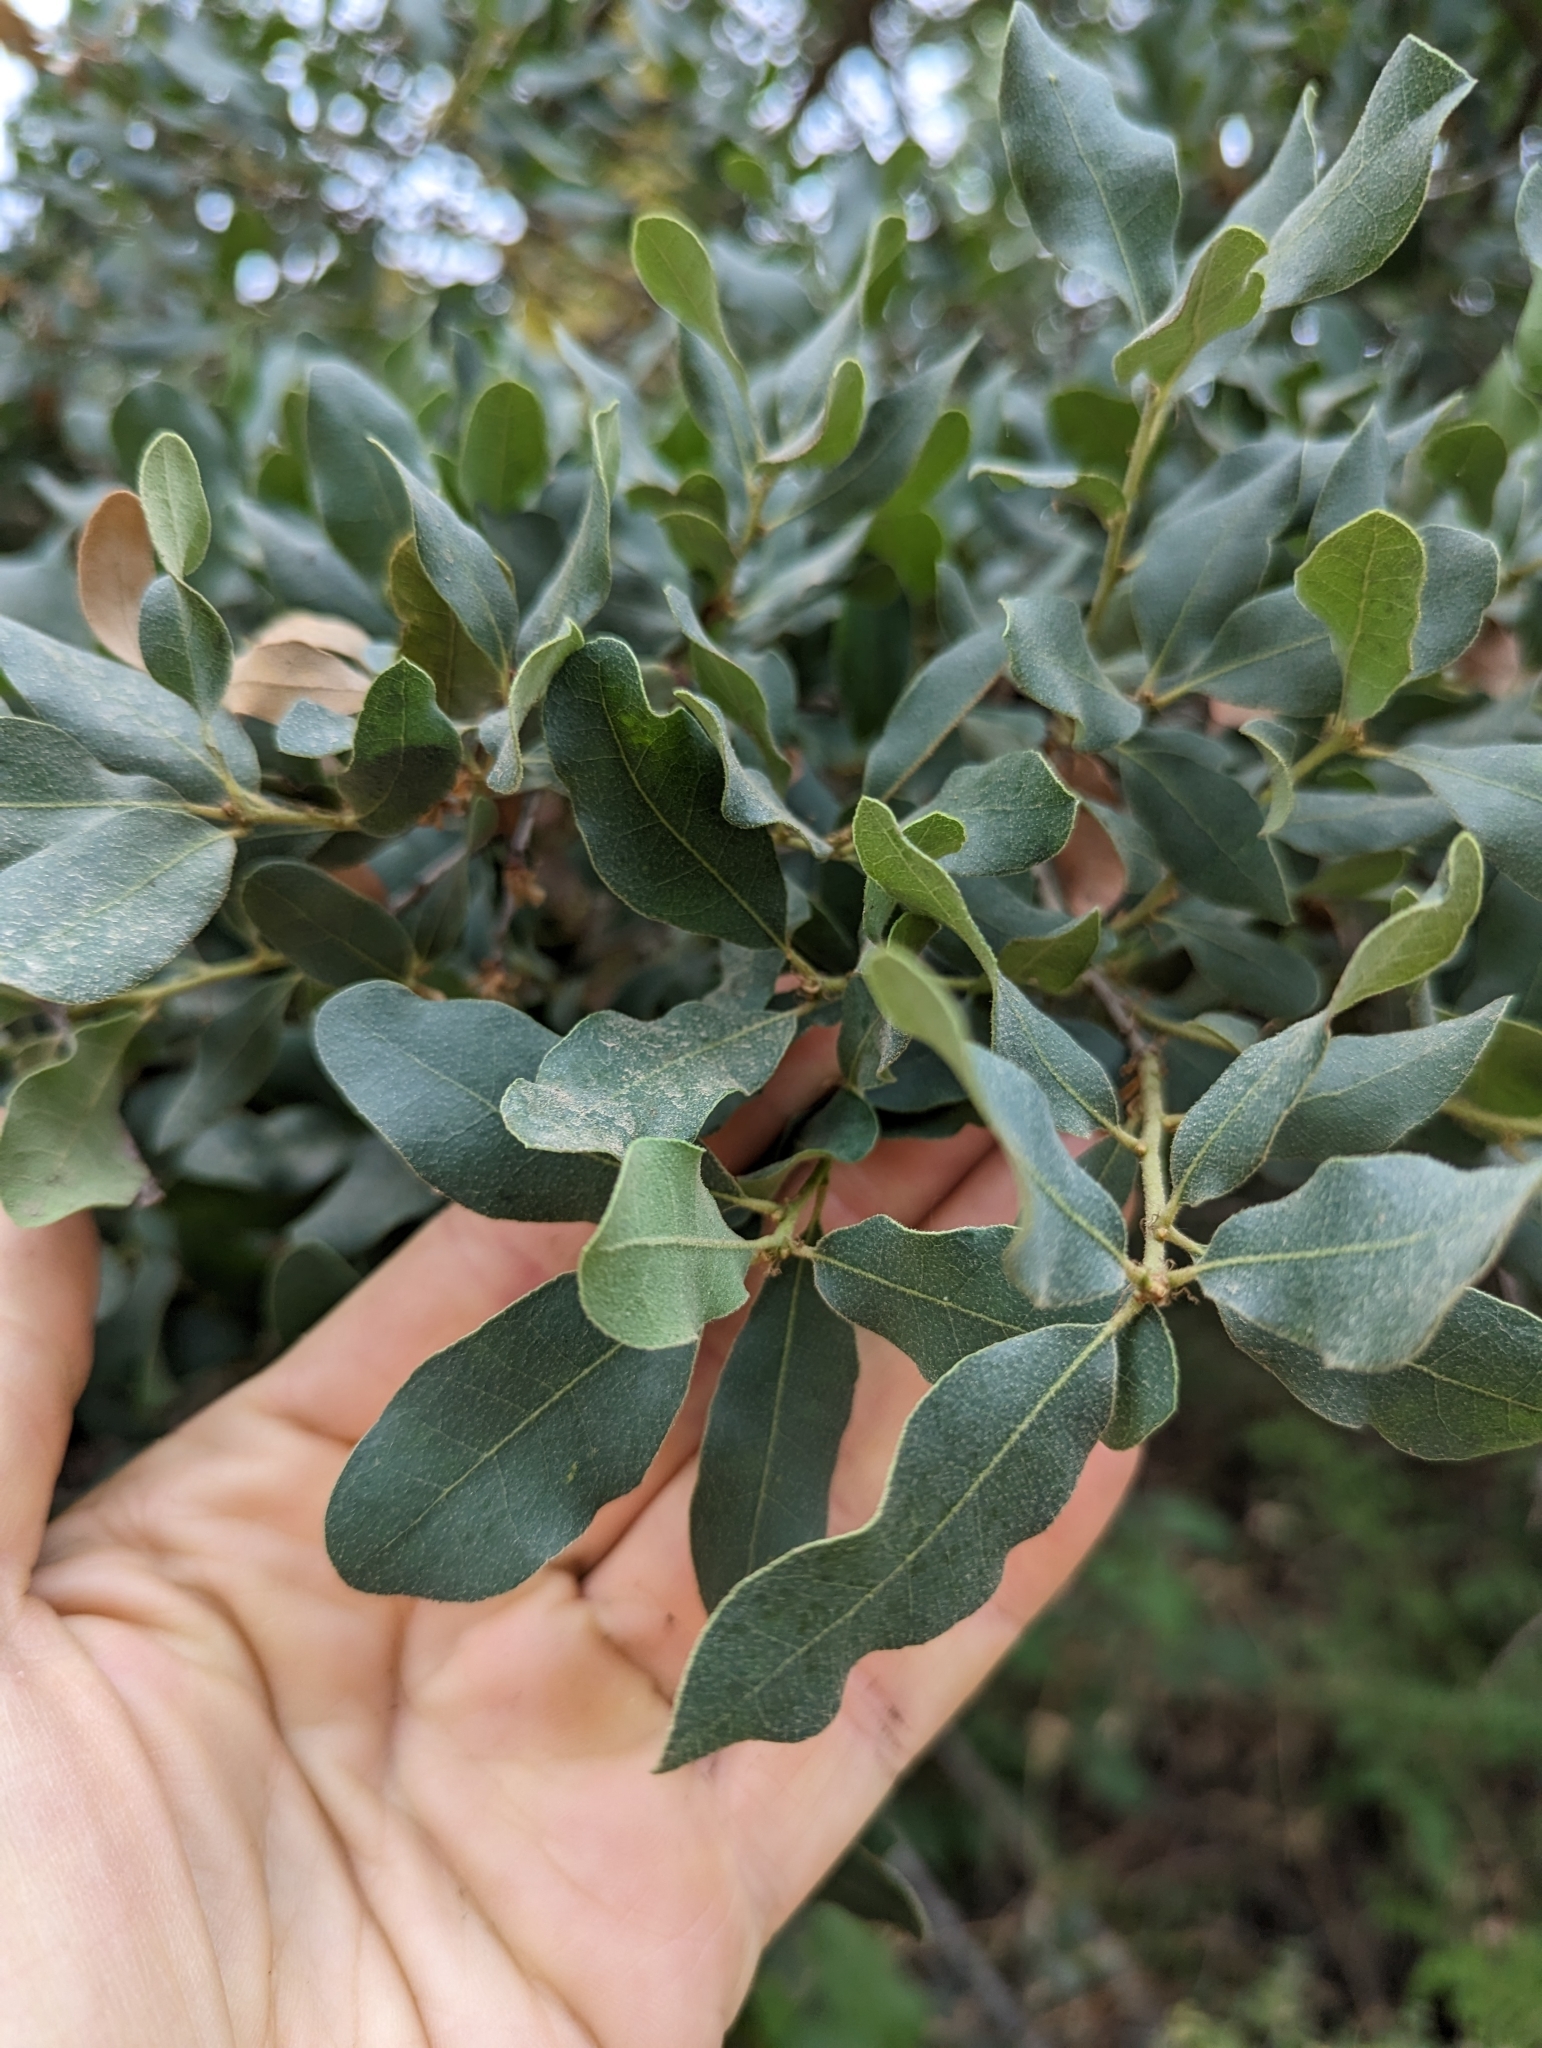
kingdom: Plantae
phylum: Tracheophyta
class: Magnoliopsida
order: Fagales
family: Fagaceae
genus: Quercus
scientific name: Quercus engelmannii
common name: Engelmann oak
